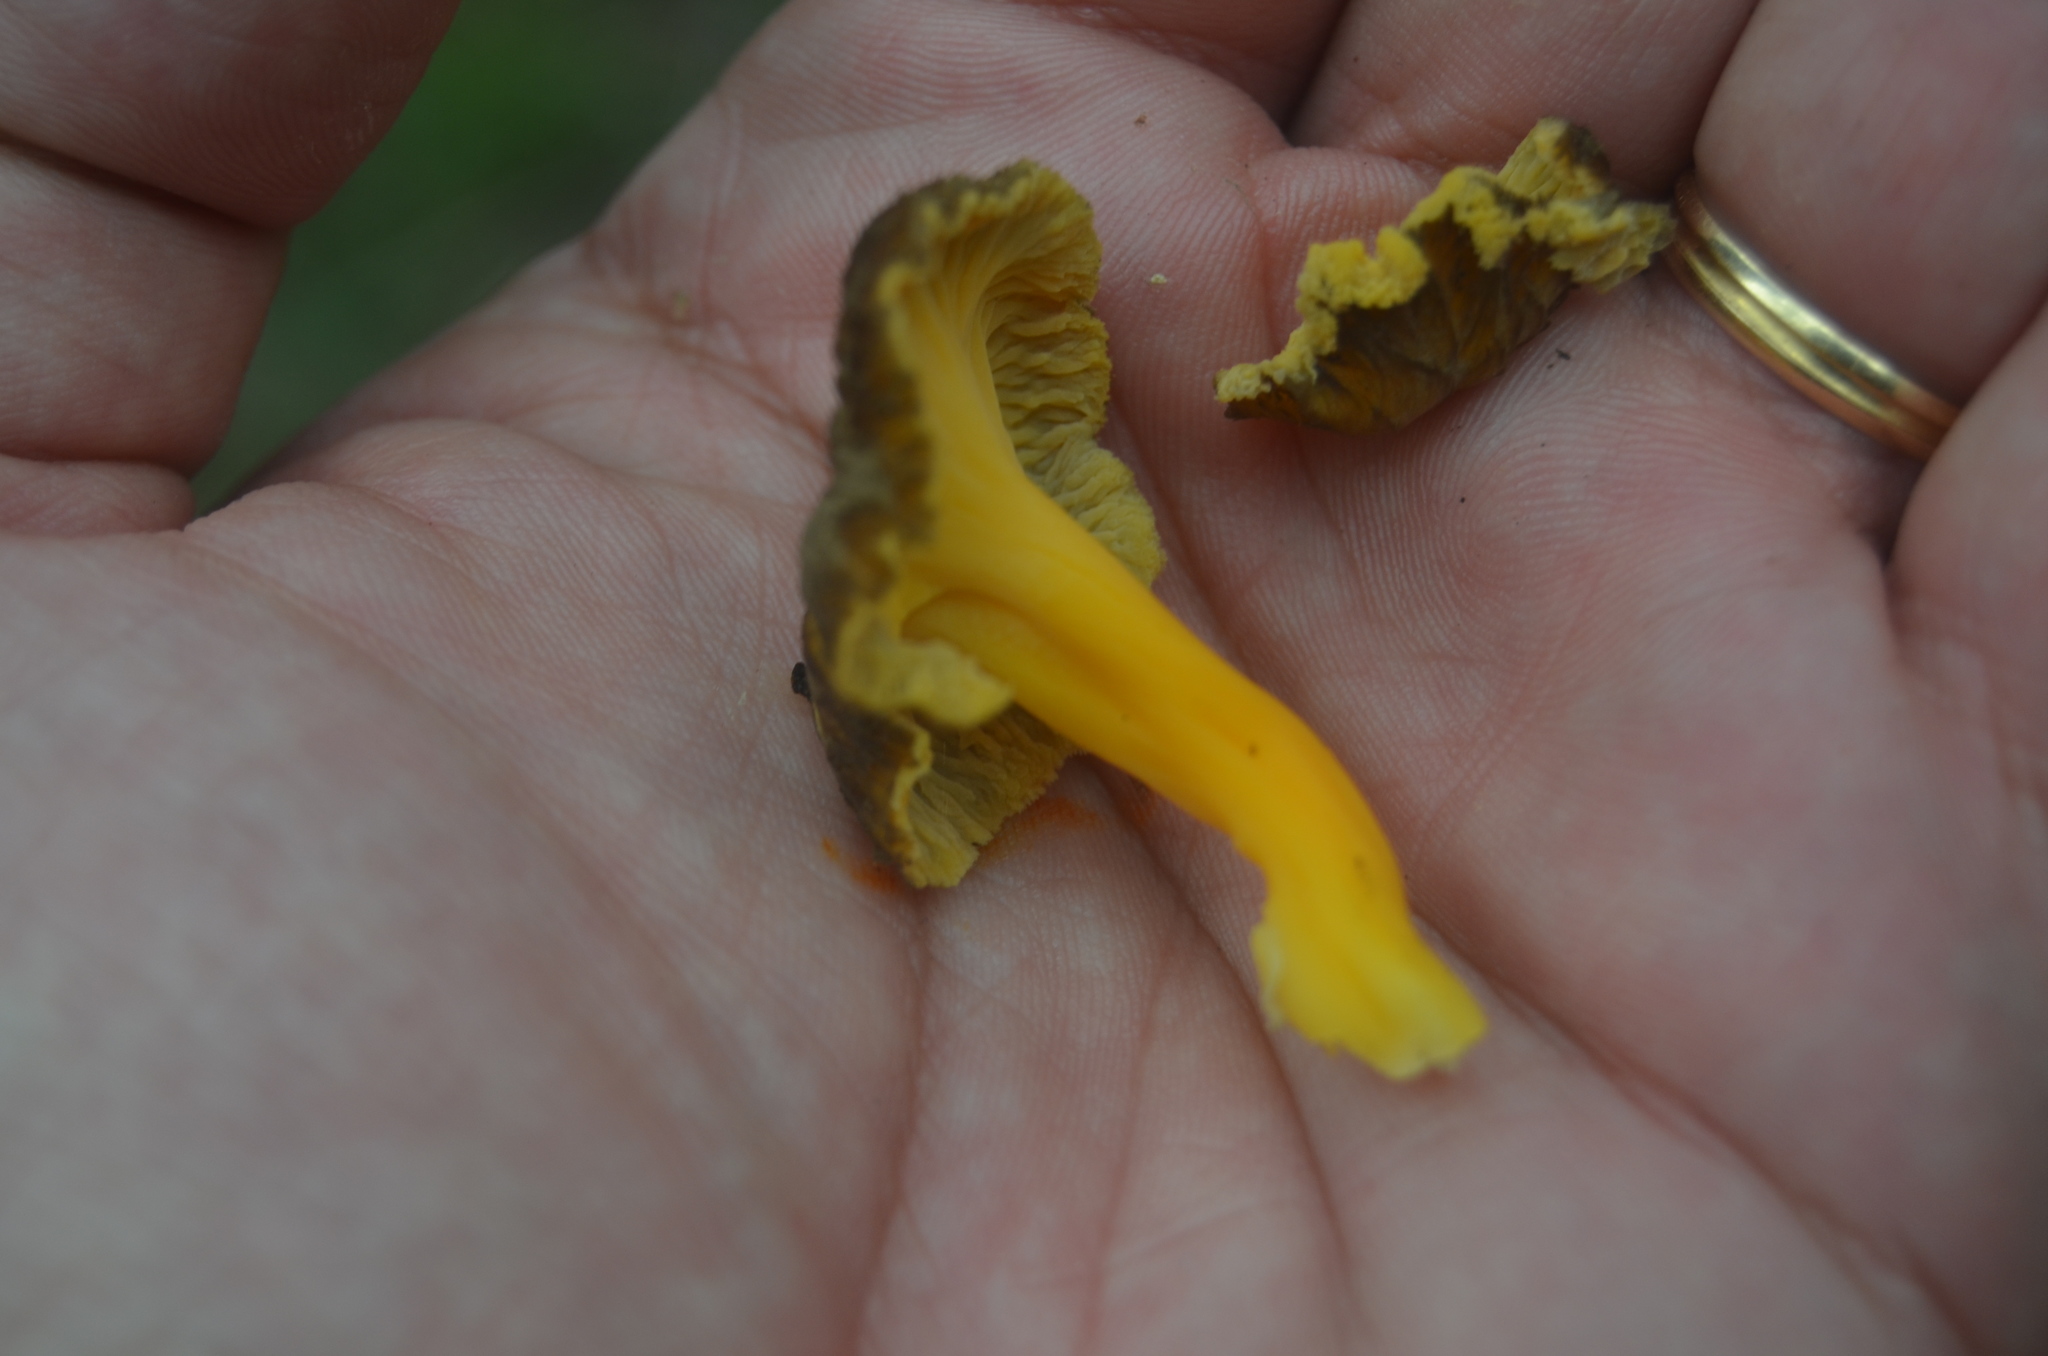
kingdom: Fungi
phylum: Basidiomycota
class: Agaricomycetes
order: Cantharellales
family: Hydnaceae
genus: Craterellus
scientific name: Craterellus lutescens
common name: Golden chanterelle
